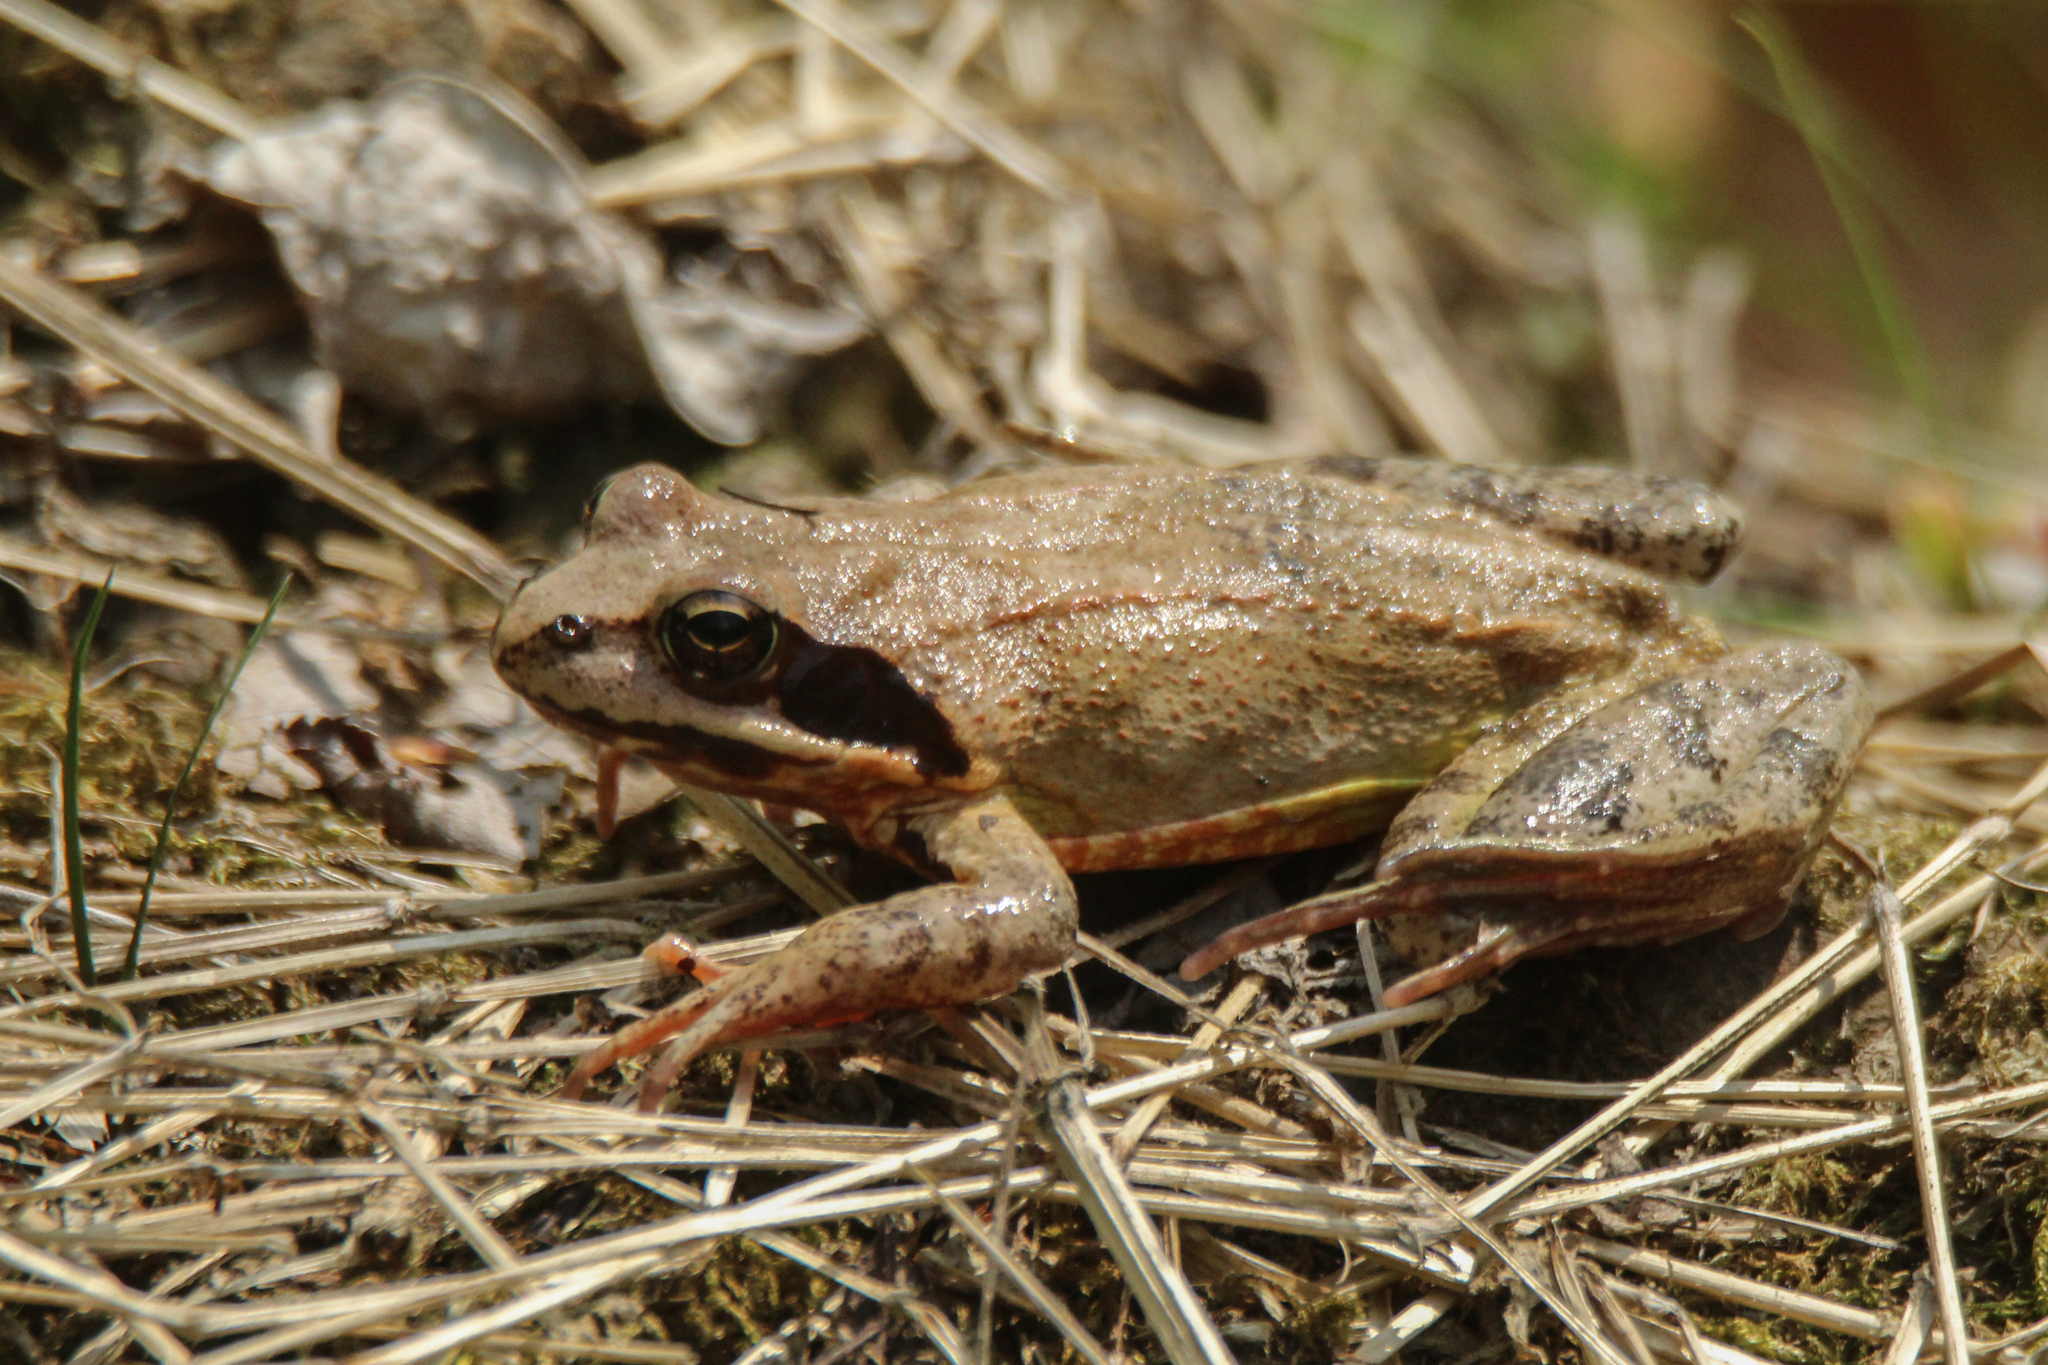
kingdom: Animalia
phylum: Chordata
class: Amphibia
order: Anura
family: Ranidae
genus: Rana
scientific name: Rana dybowskii
